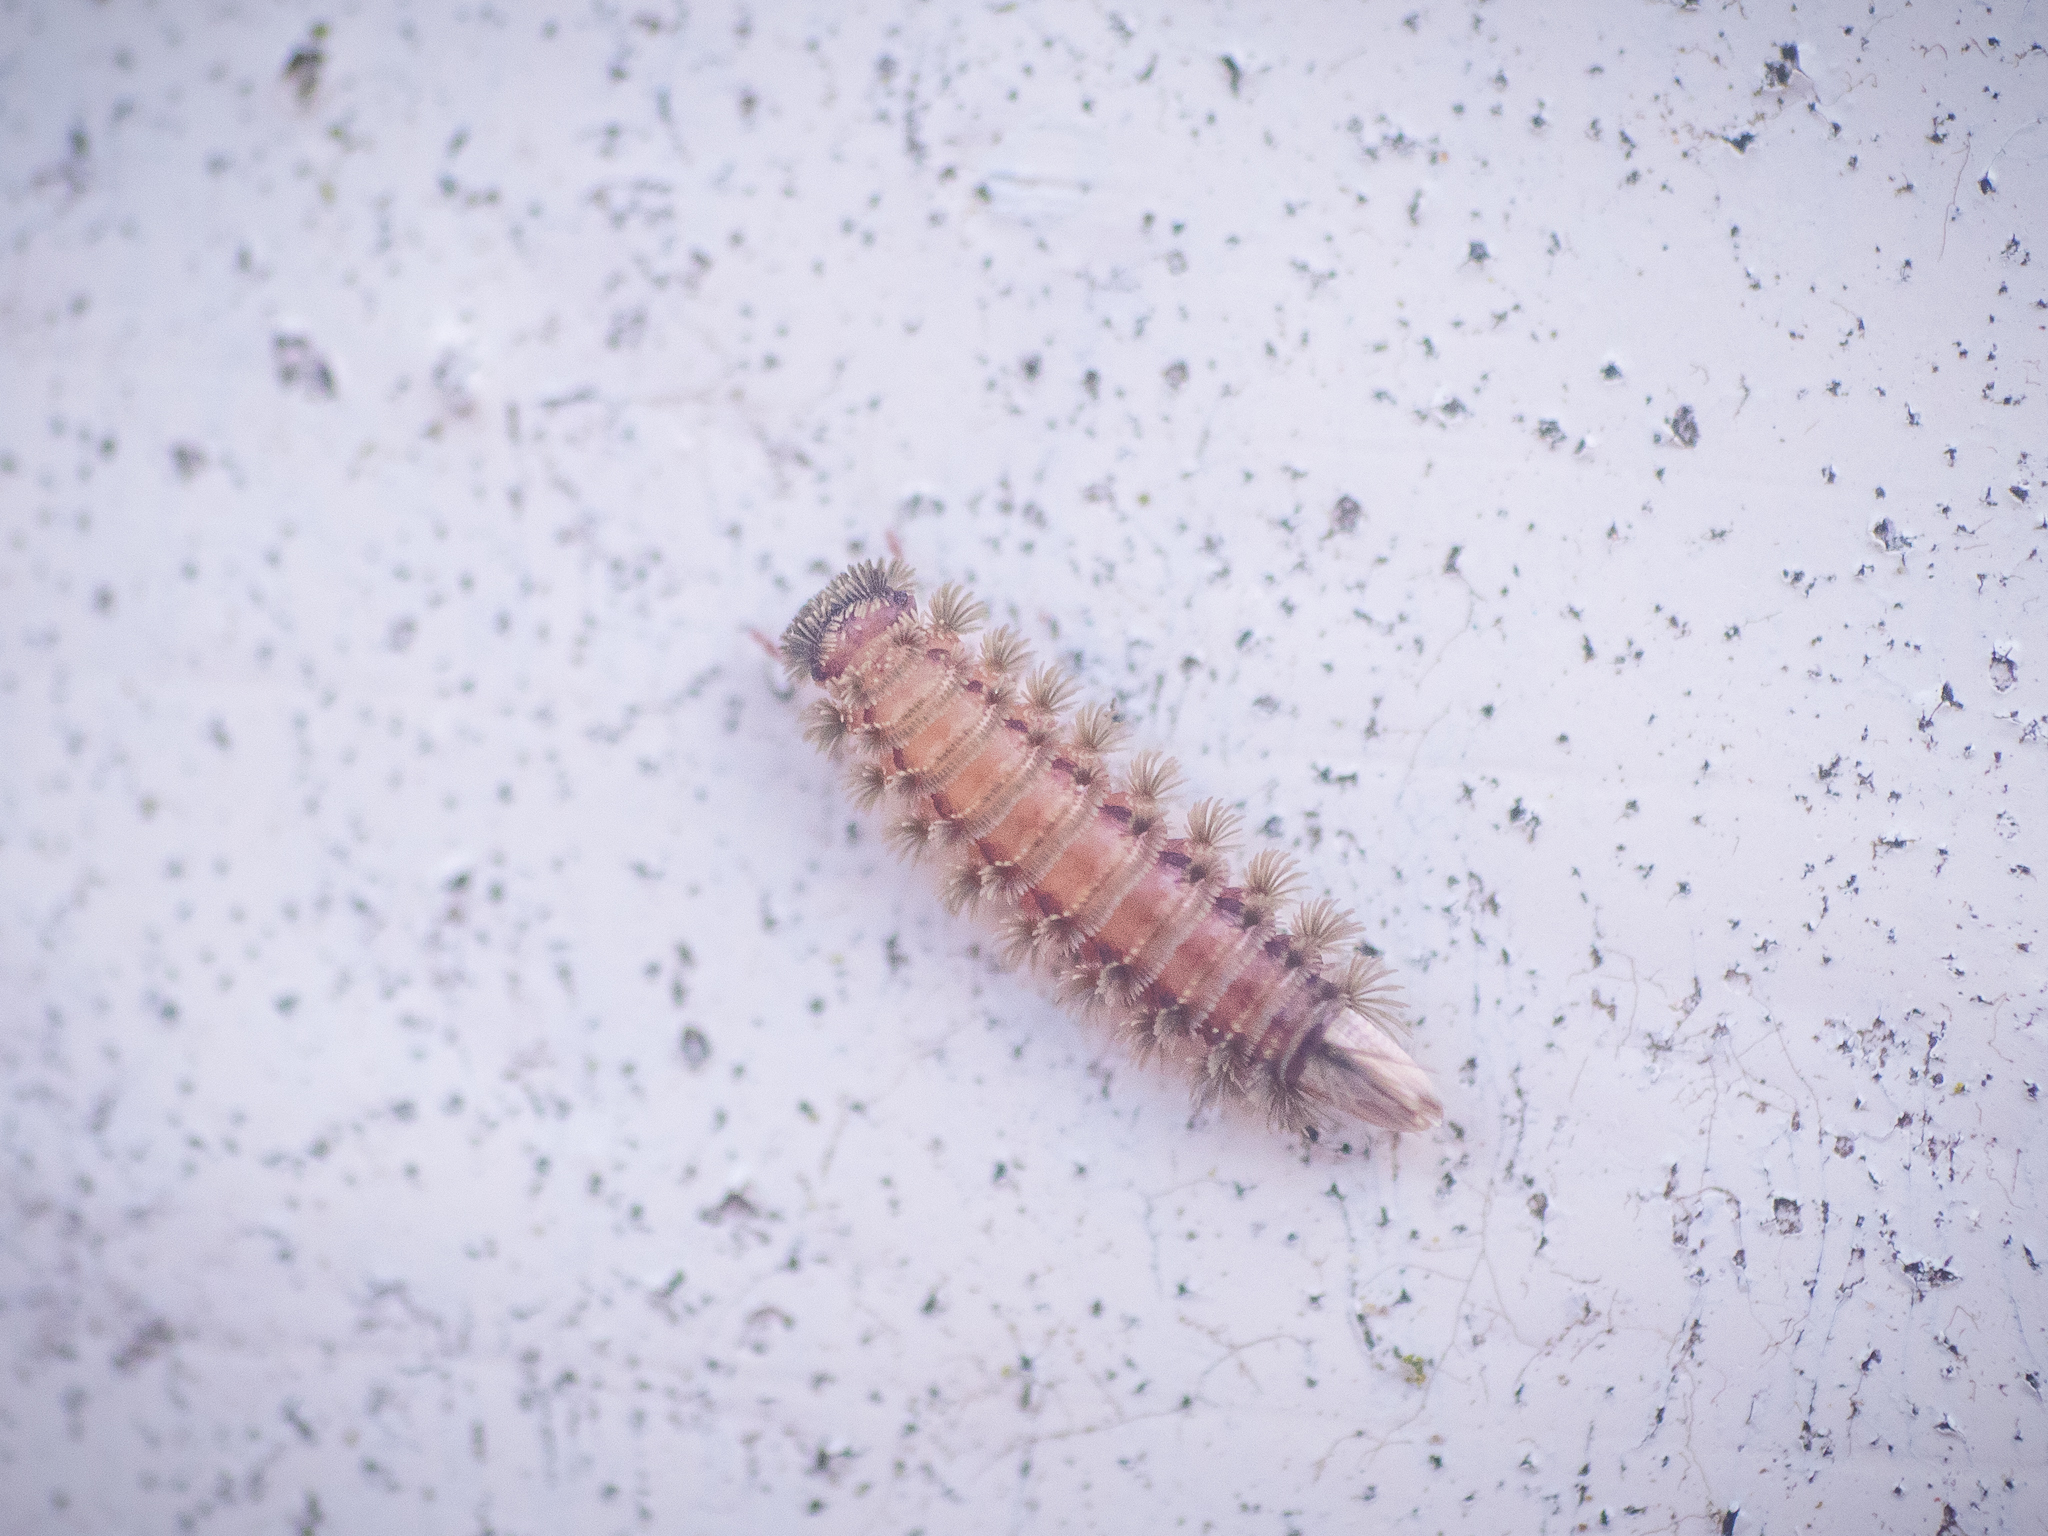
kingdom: Animalia
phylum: Arthropoda
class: Diplopoda
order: Polyxenida
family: Polyxenidae
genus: Polyxenus
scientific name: Polyxenus lagurus
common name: Bristly millipede
